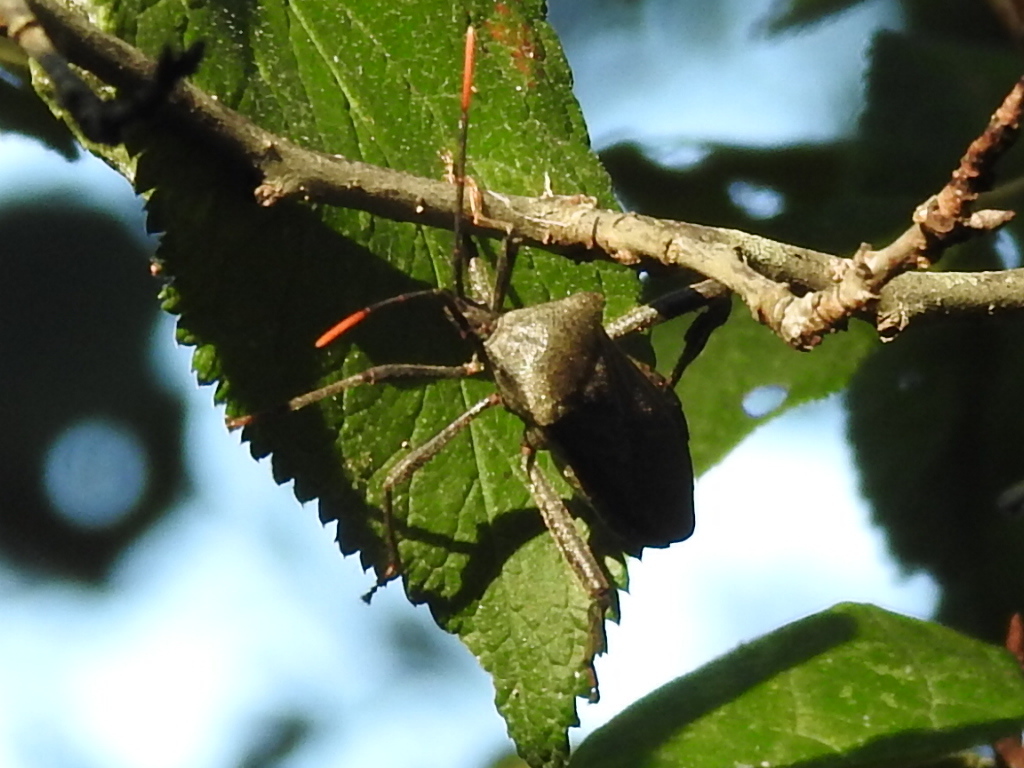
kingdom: Animalia
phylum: Arthropoda
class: Insecta
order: Hemiptera
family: Coreidae
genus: Acanthocephala
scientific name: Acanthocephala terminalis
